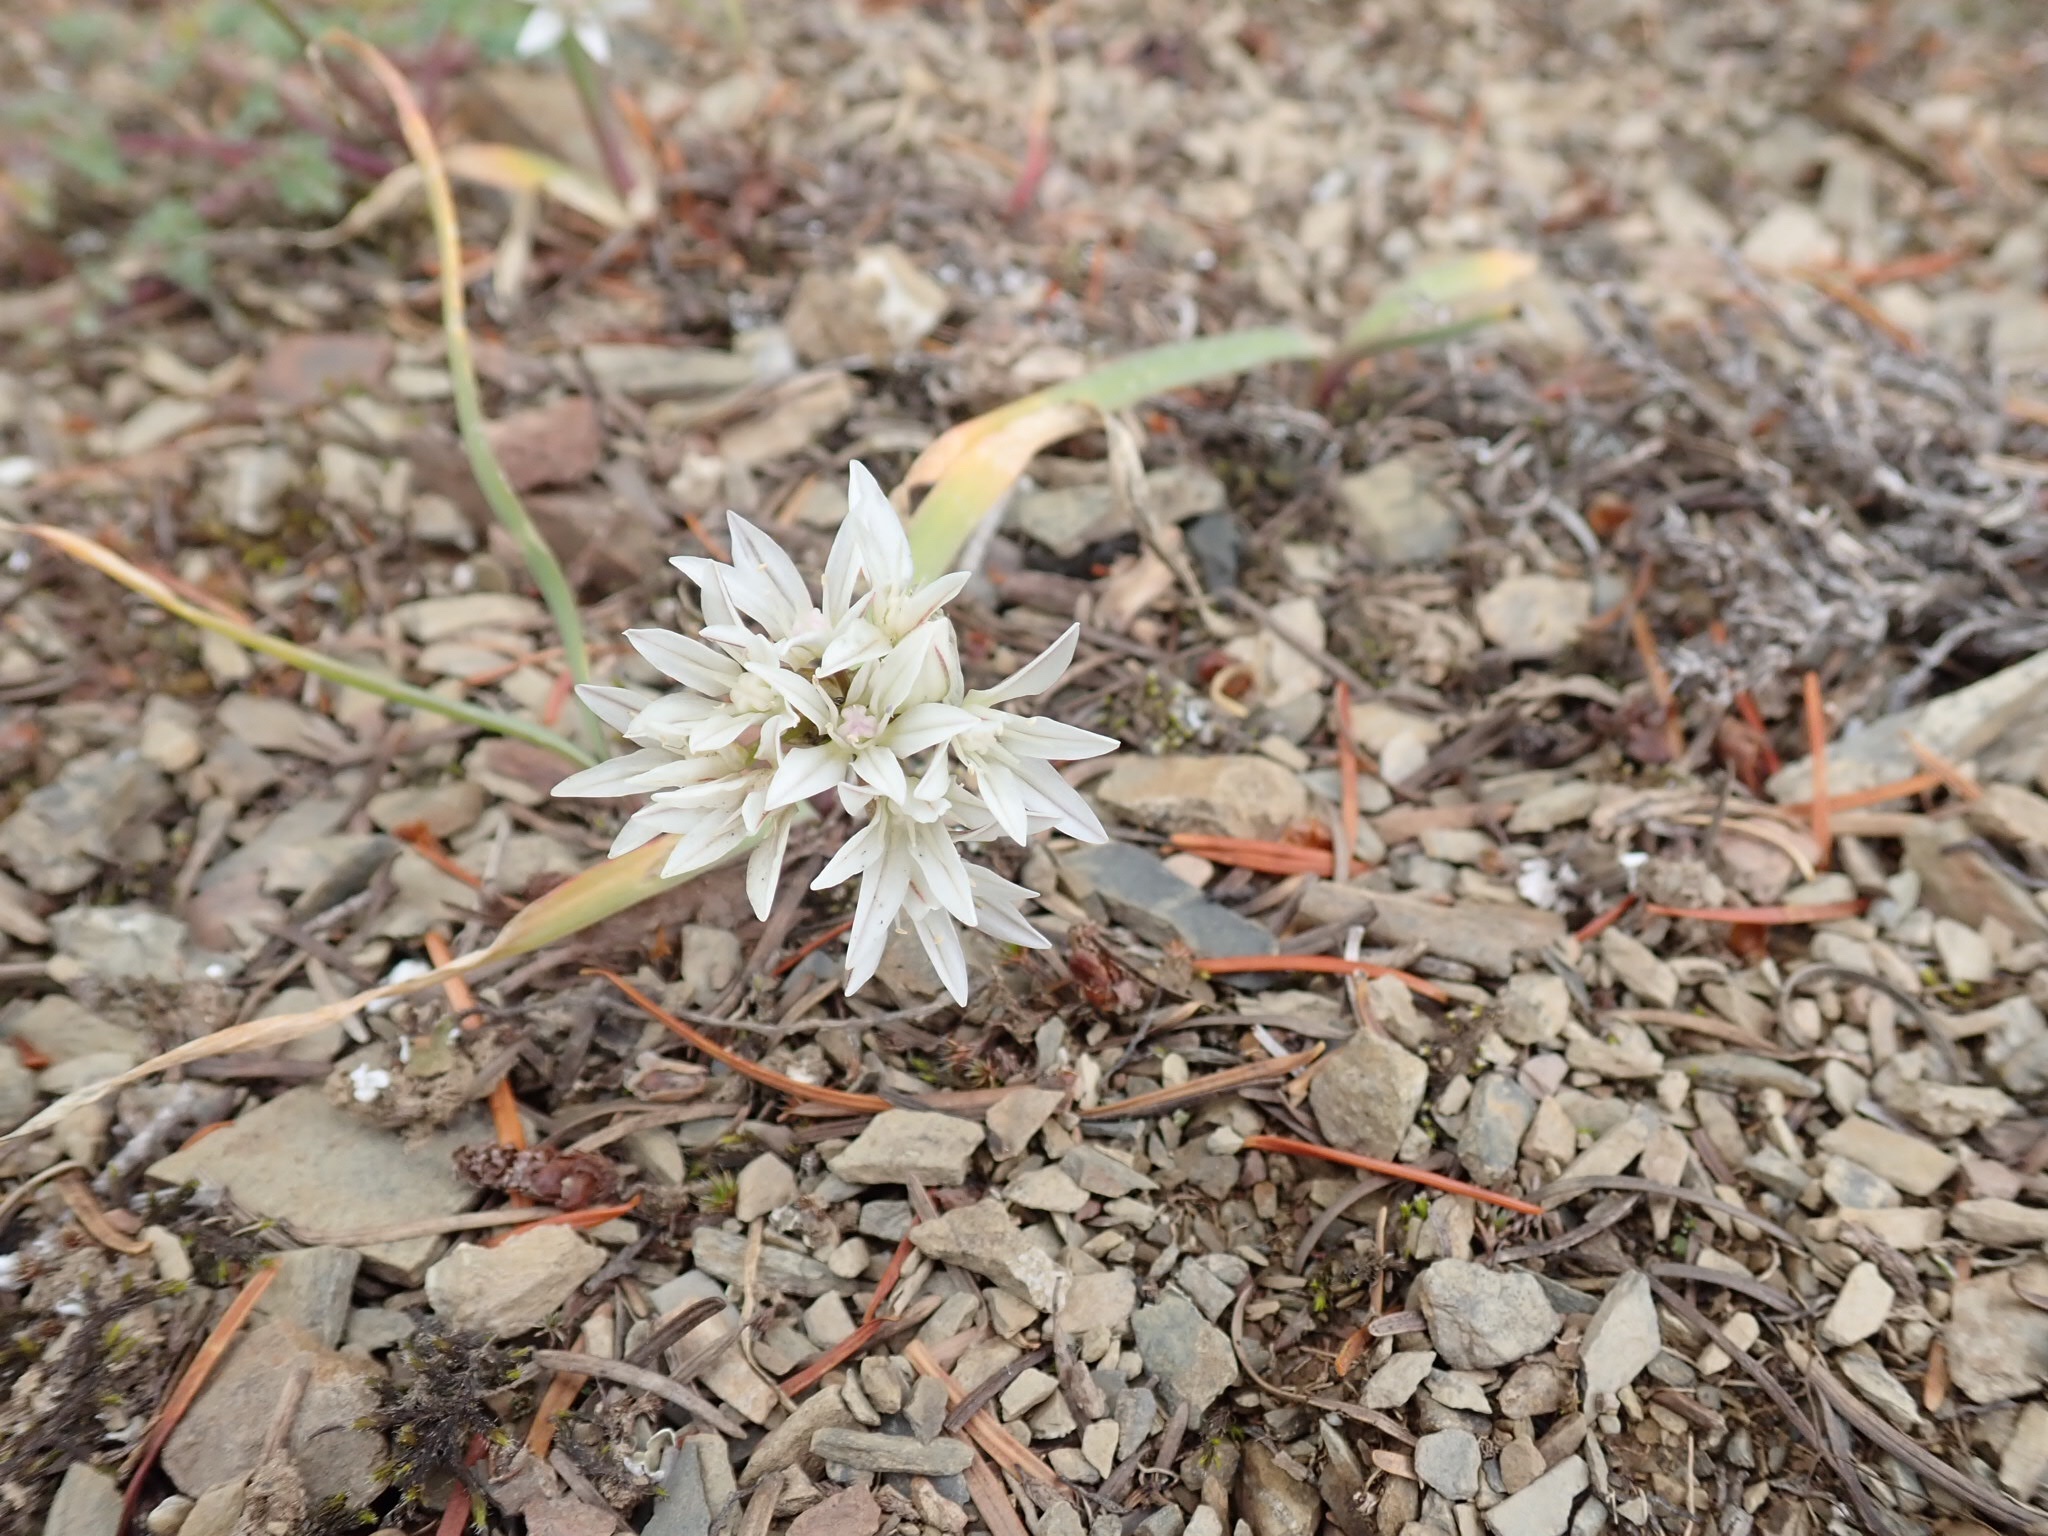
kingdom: Plantae
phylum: Tracheophyta
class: Liliopsida
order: Asparagales
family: Amaryllidaceae
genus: Allium
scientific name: Allium crenulatum
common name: Olympic onion
